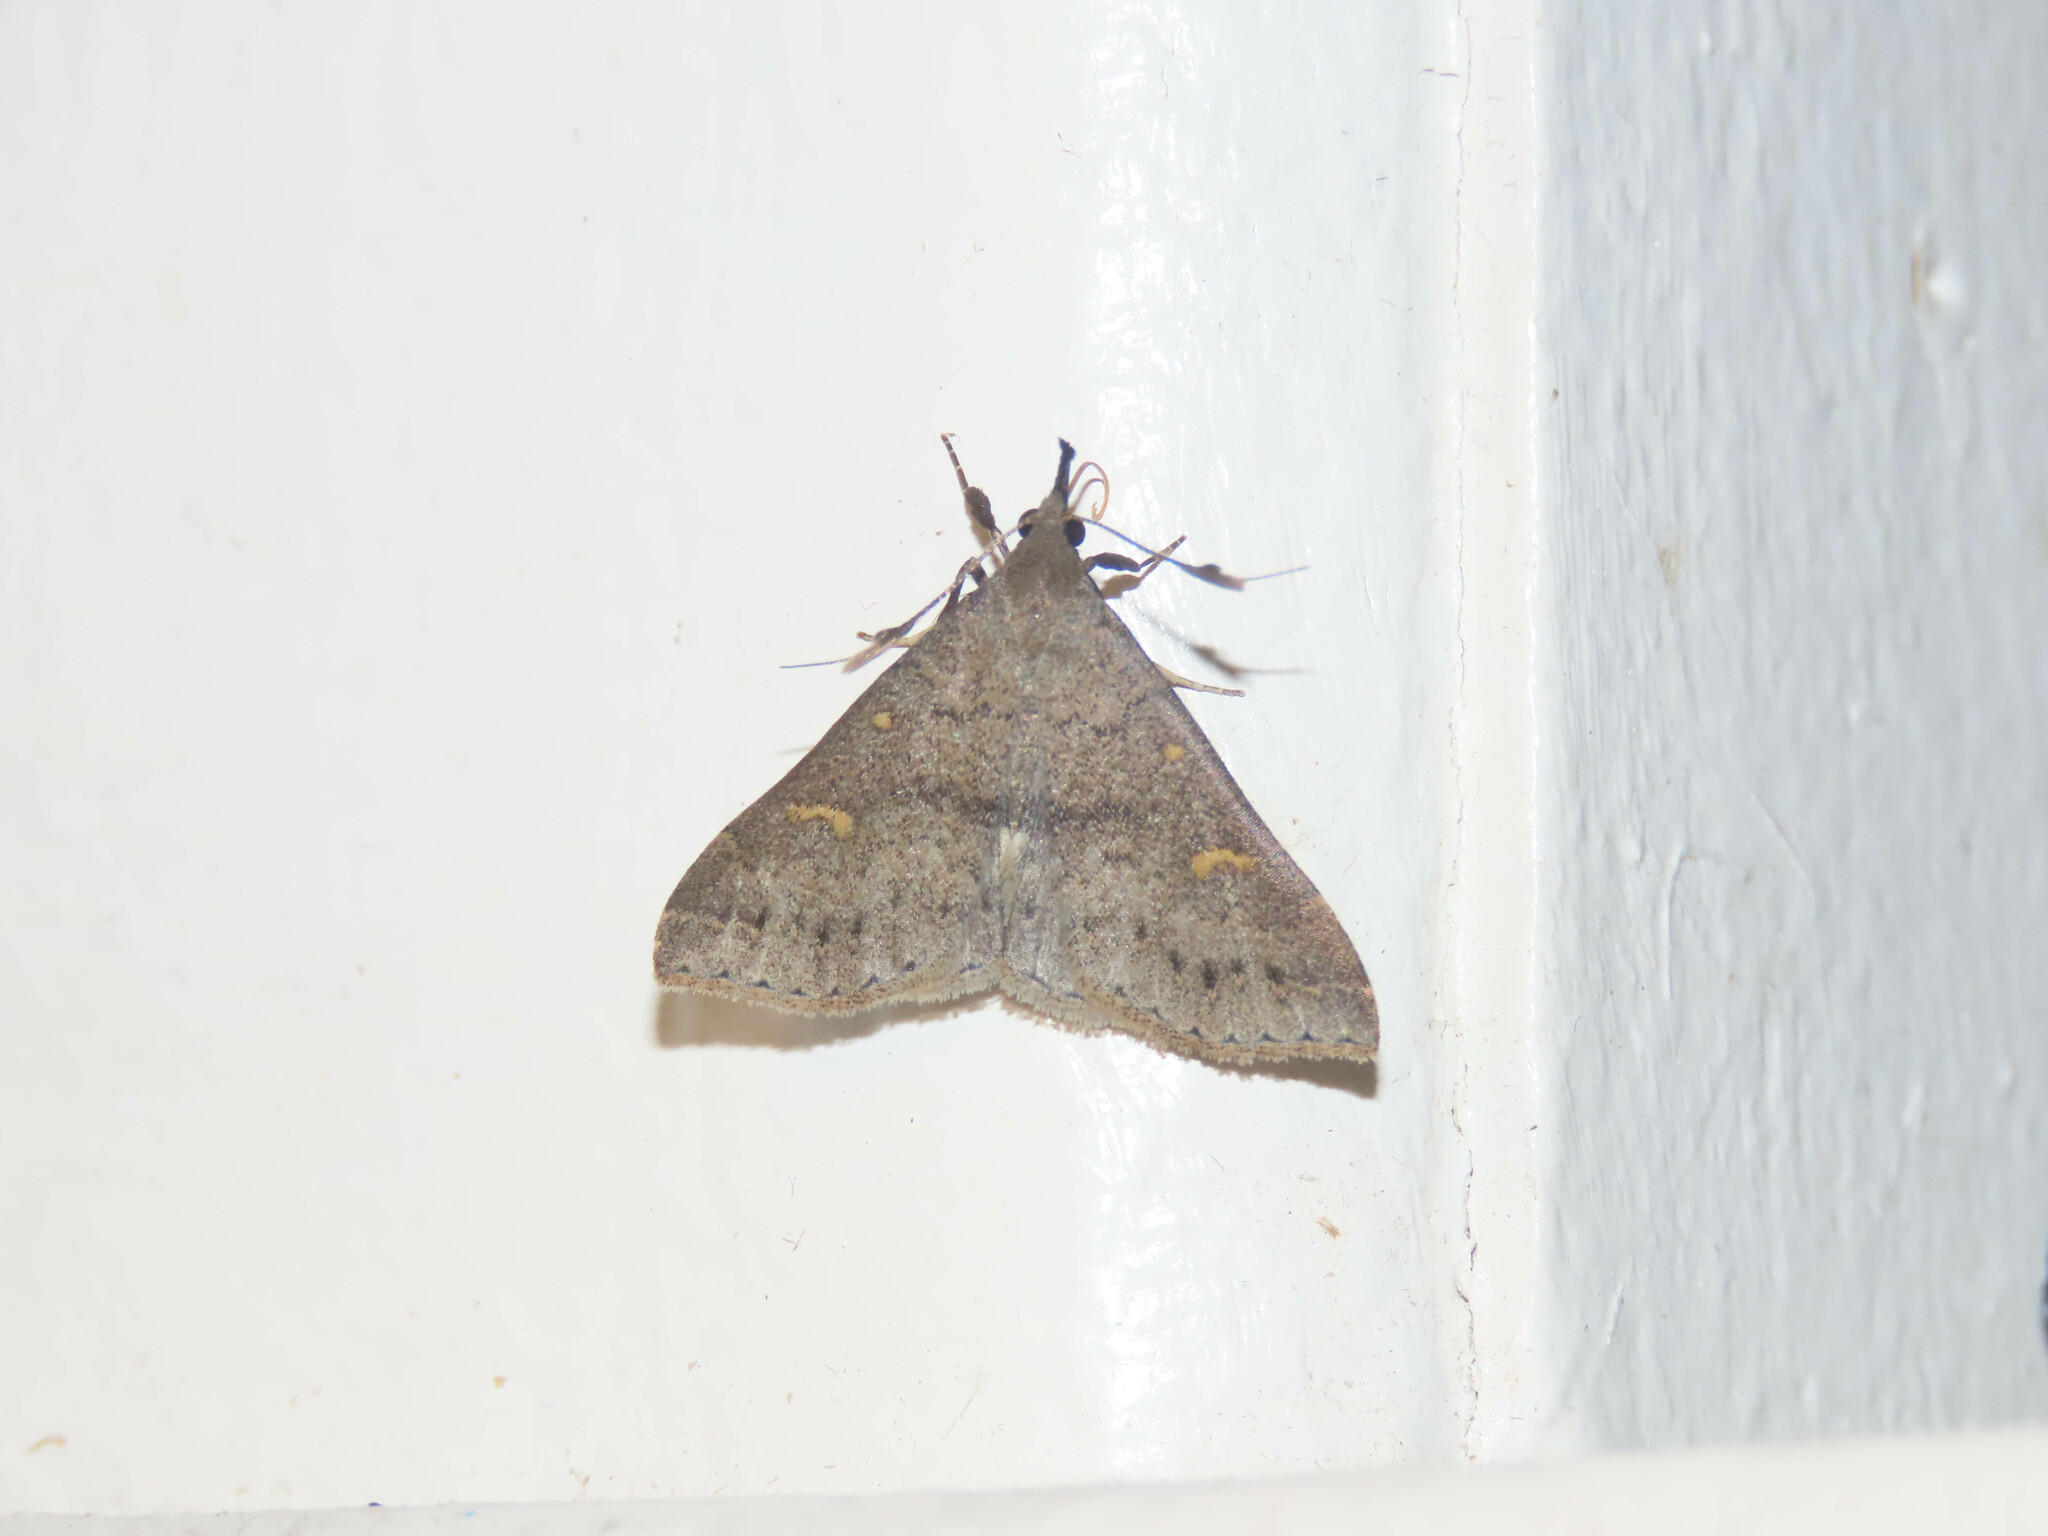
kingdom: Animalia
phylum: Arthropoda
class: Insecta
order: Lepidoptera
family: Erebidae
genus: Renia
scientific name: Renia adspergillus
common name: Speckled renia moth
